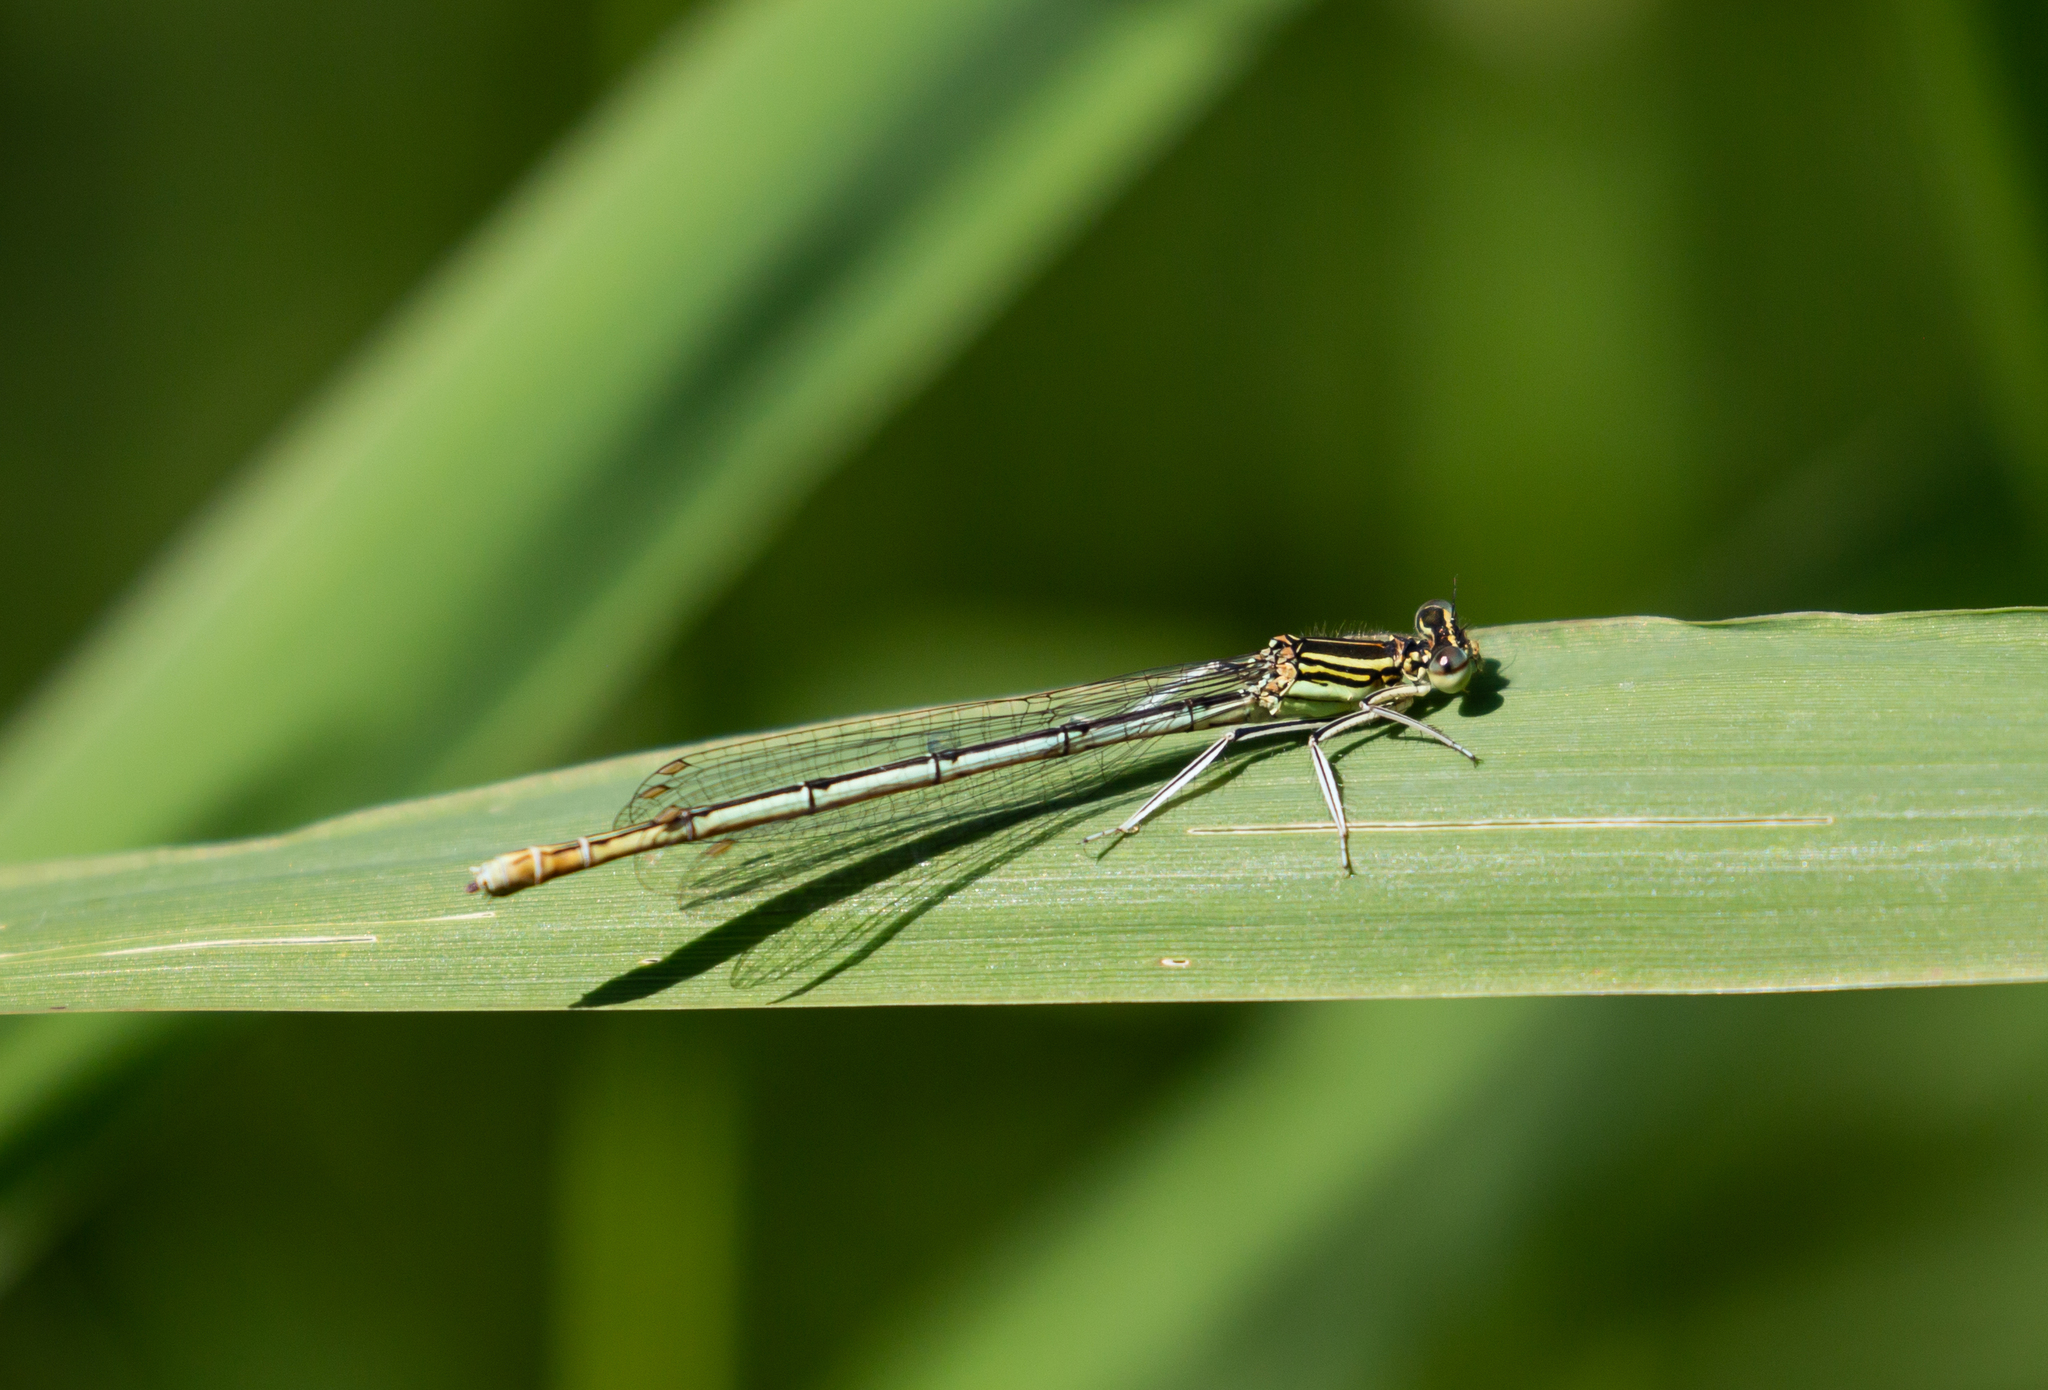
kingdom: Animalia
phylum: Arthropoda
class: Insecta
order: Odonata
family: Platycnemididae
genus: Platycnemis
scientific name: Platycnemis pennipes
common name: White-legged damselfly
